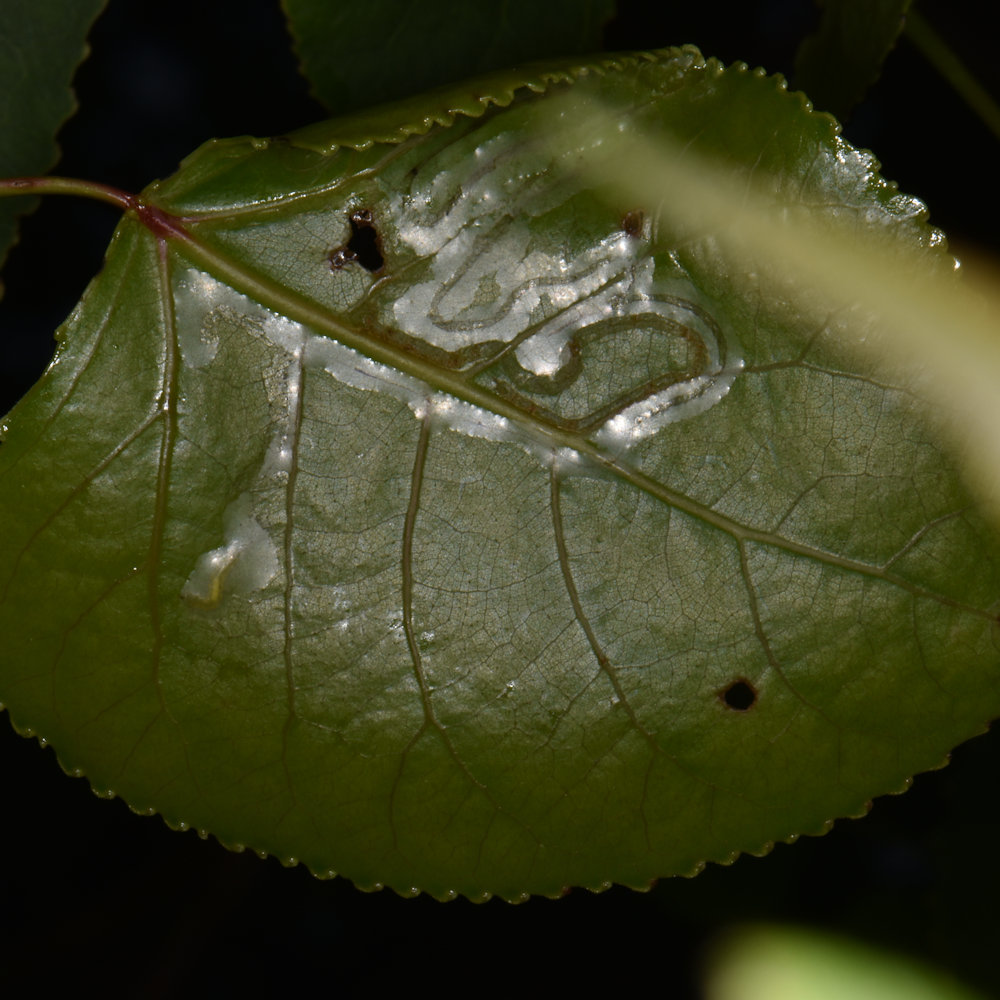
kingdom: Animalia
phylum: Arthropoda
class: Insecta
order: Lepidoptera
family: Gracillariidae
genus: Phyllocnistis
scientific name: Phyllocnistis populiella
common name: Aspen serpentine leafminer moth
